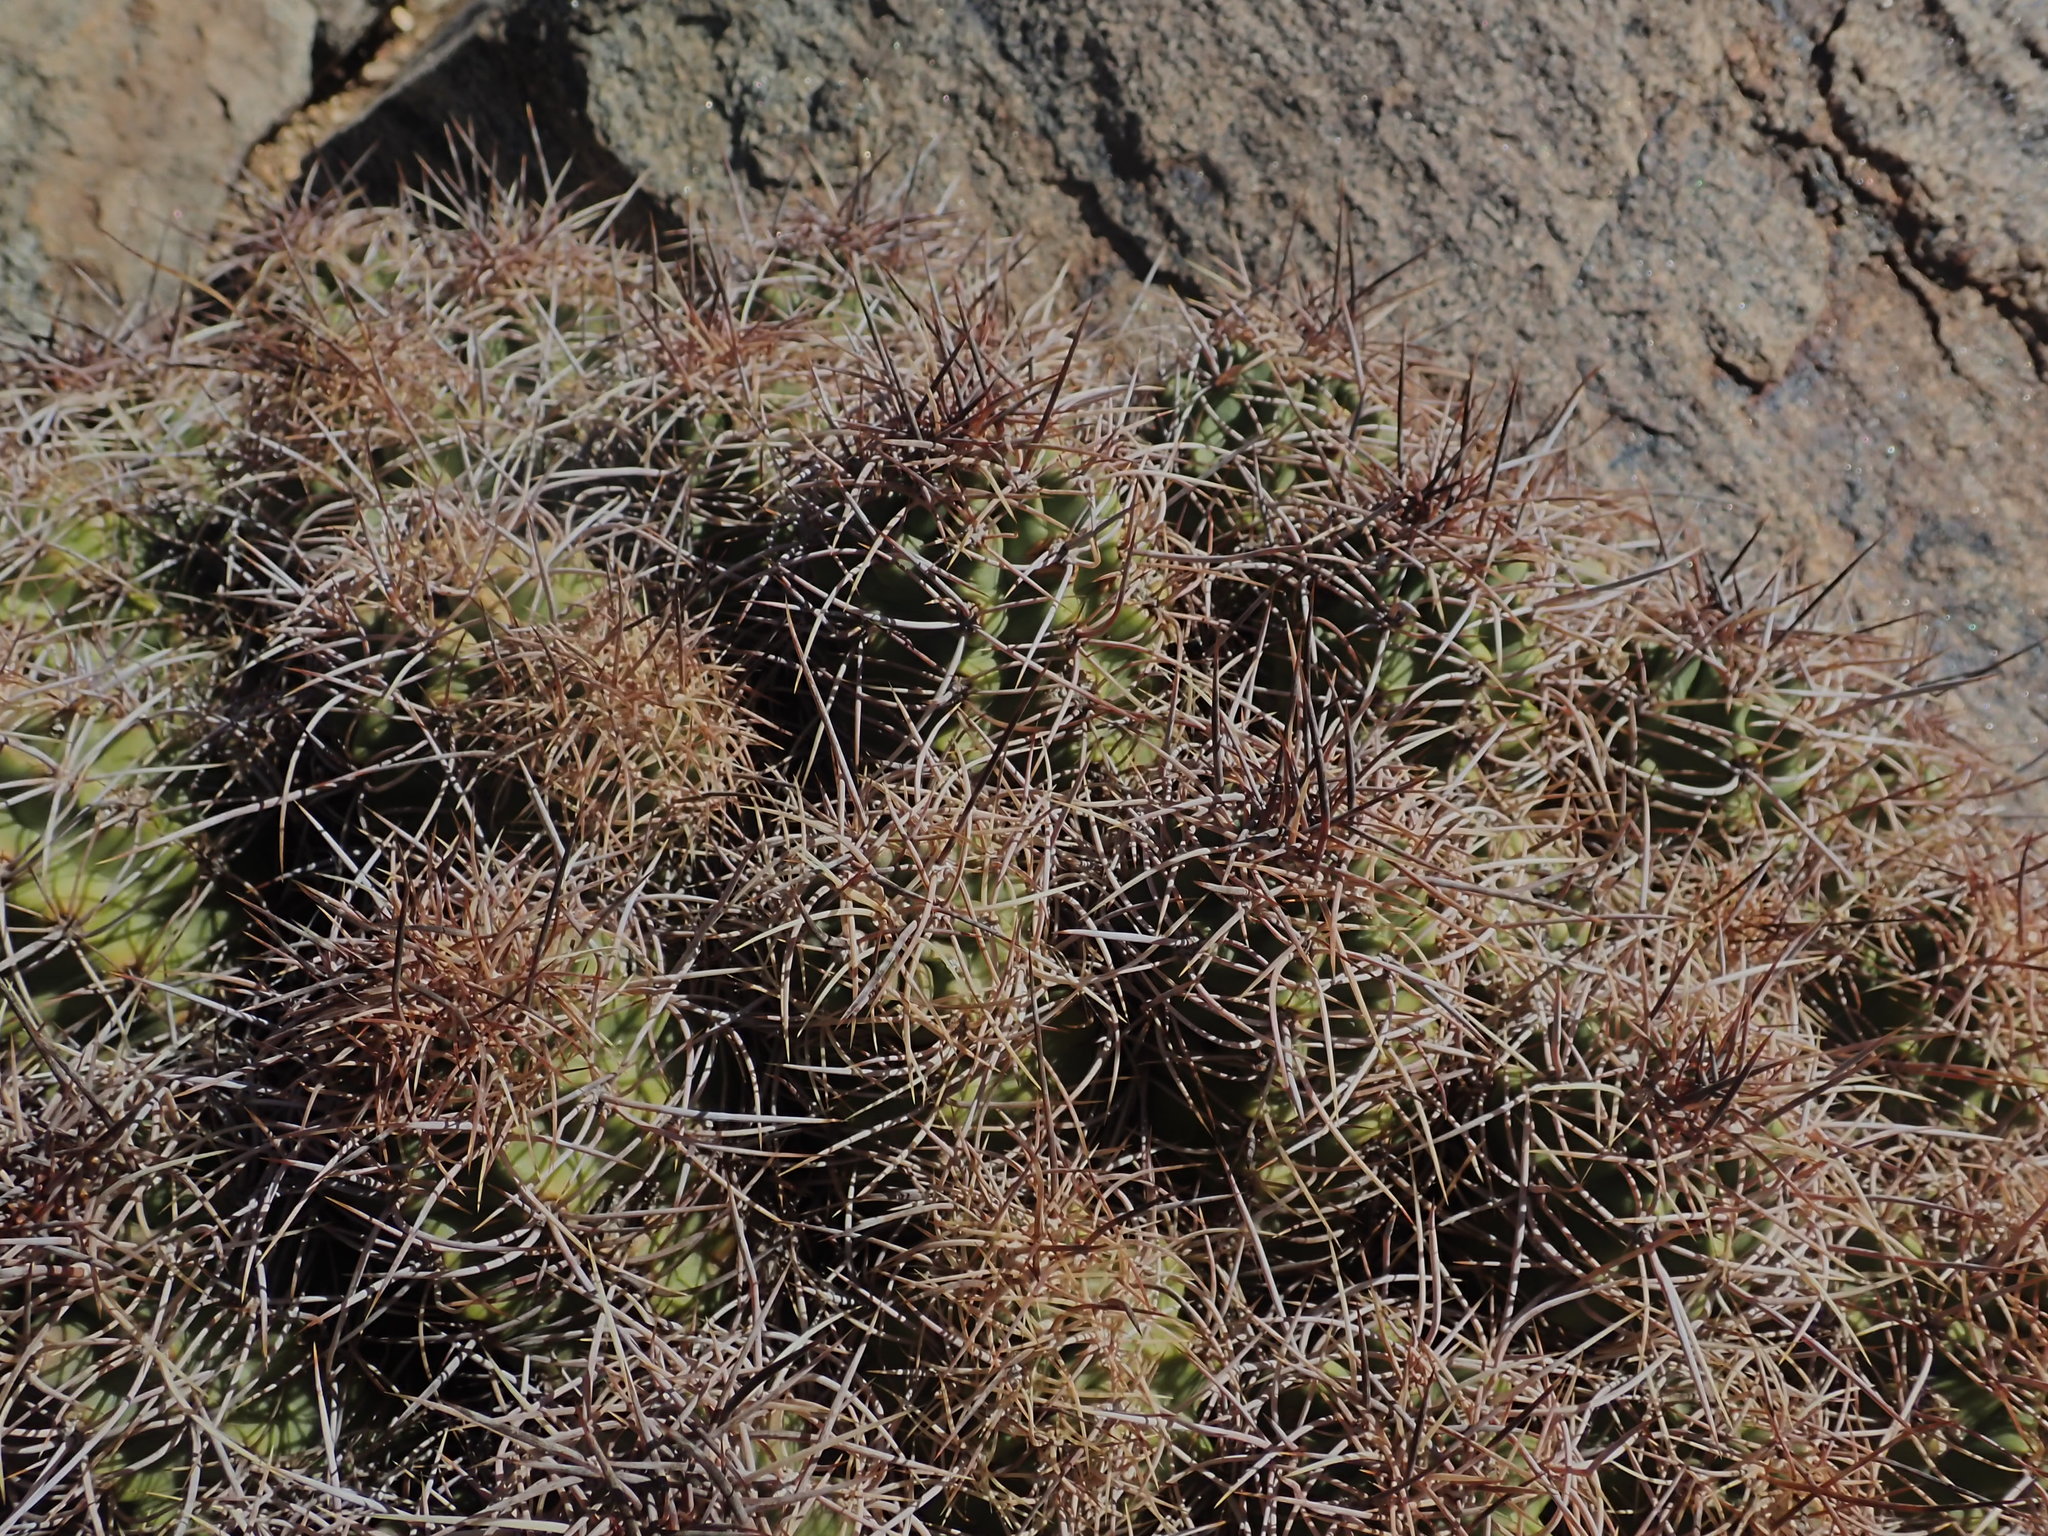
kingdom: Plantae
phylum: Tracheophyta
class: Magnoliopsida
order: Caryophyllales
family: Cactaceae
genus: Echinocereus
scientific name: Echinocereus triglochidiatus
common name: Claretcup hedgehog
